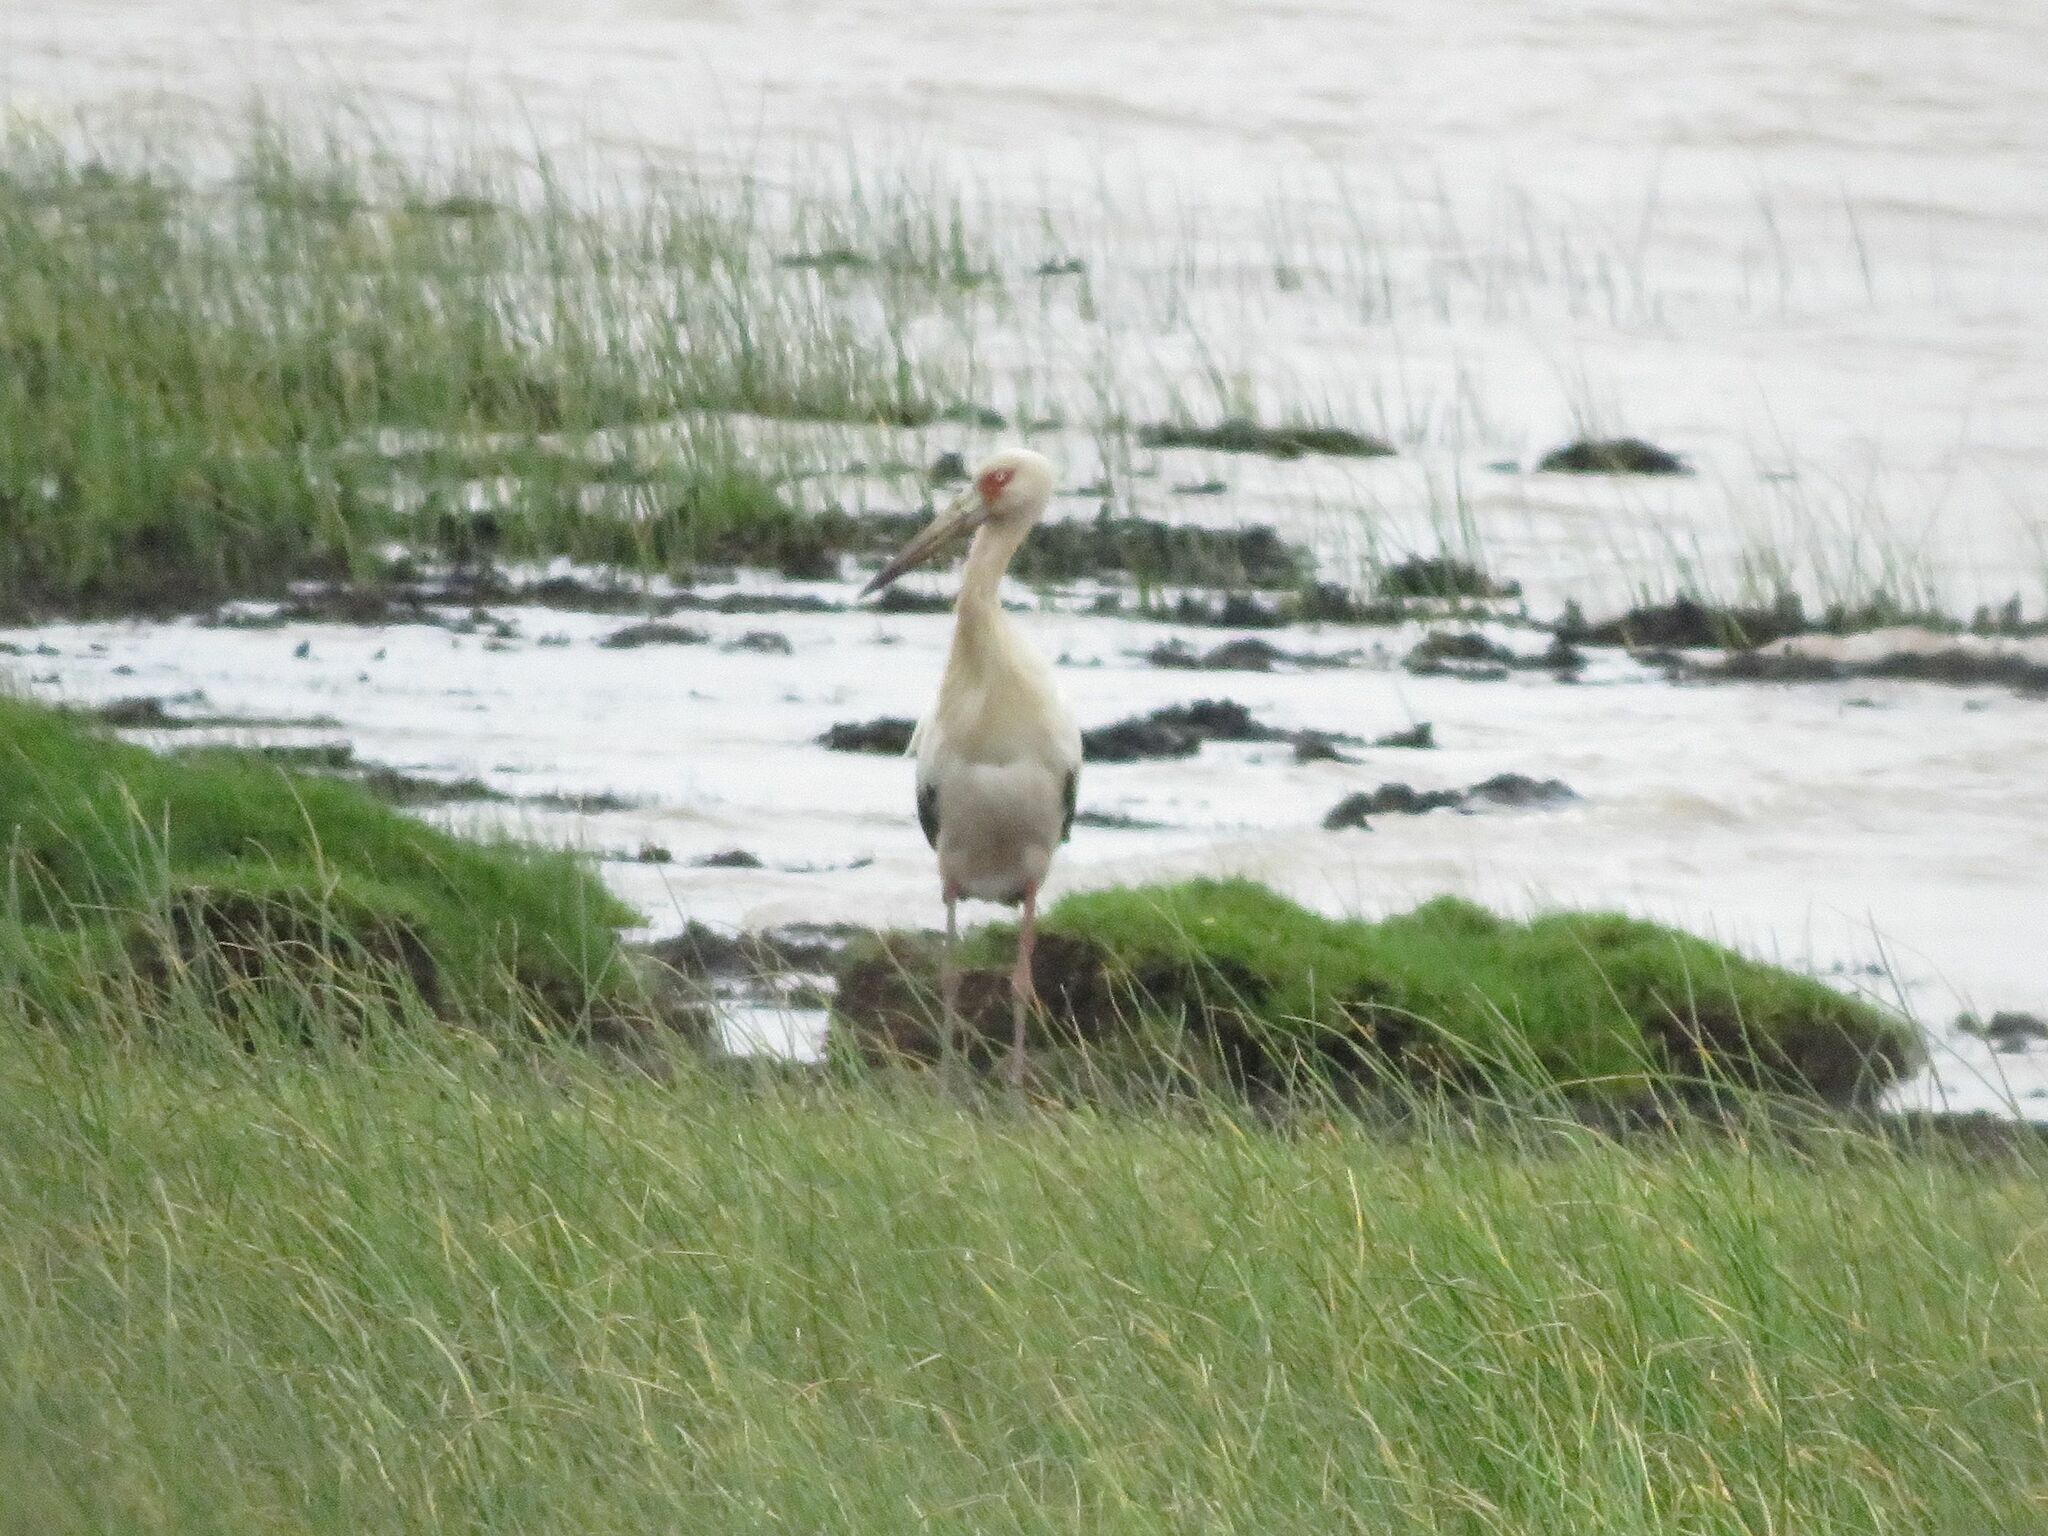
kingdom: Animalia
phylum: Chordata
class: Aves
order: Ciconiiformes
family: Ciconiidae
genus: Ciconia
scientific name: Ciconia maguari
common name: Maguari stork
